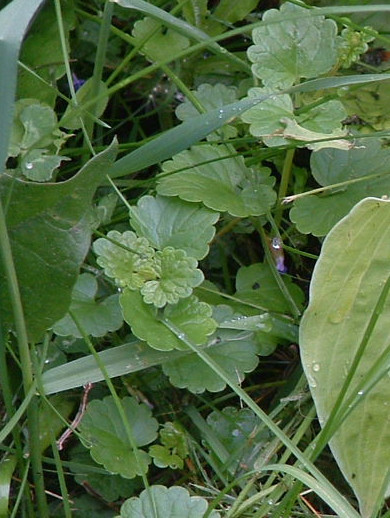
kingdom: Plantae
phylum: Tracheophyta
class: Magnoliopsida
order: Lamiales
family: Lamiaceae
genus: Glechoma
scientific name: Glechoma hederacea
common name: Ground ivy
